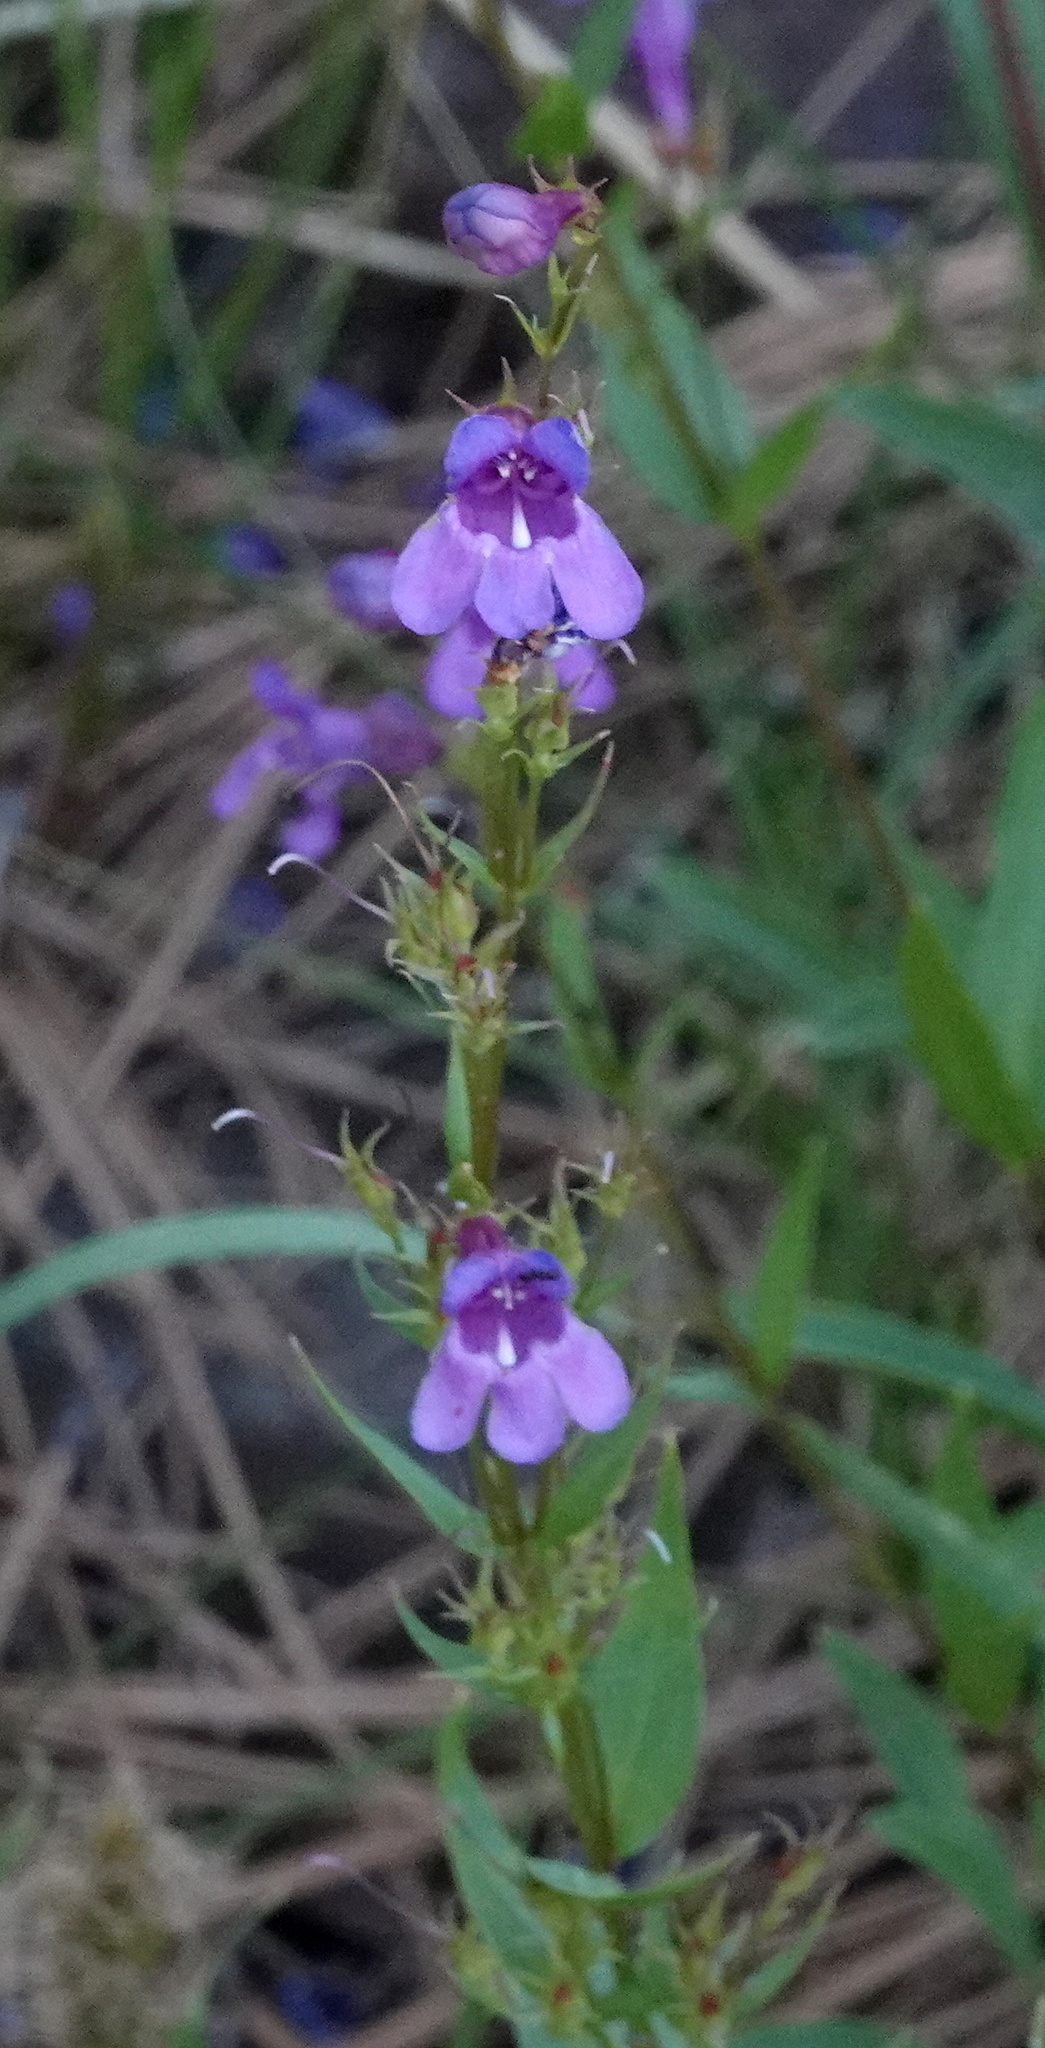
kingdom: Plantae
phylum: Tracheophyta
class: Magnoliopsida
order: Lamiales
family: Plantaginaceae
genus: Penstemon
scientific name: Penstemon leonardii
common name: Leonard's penstemon
